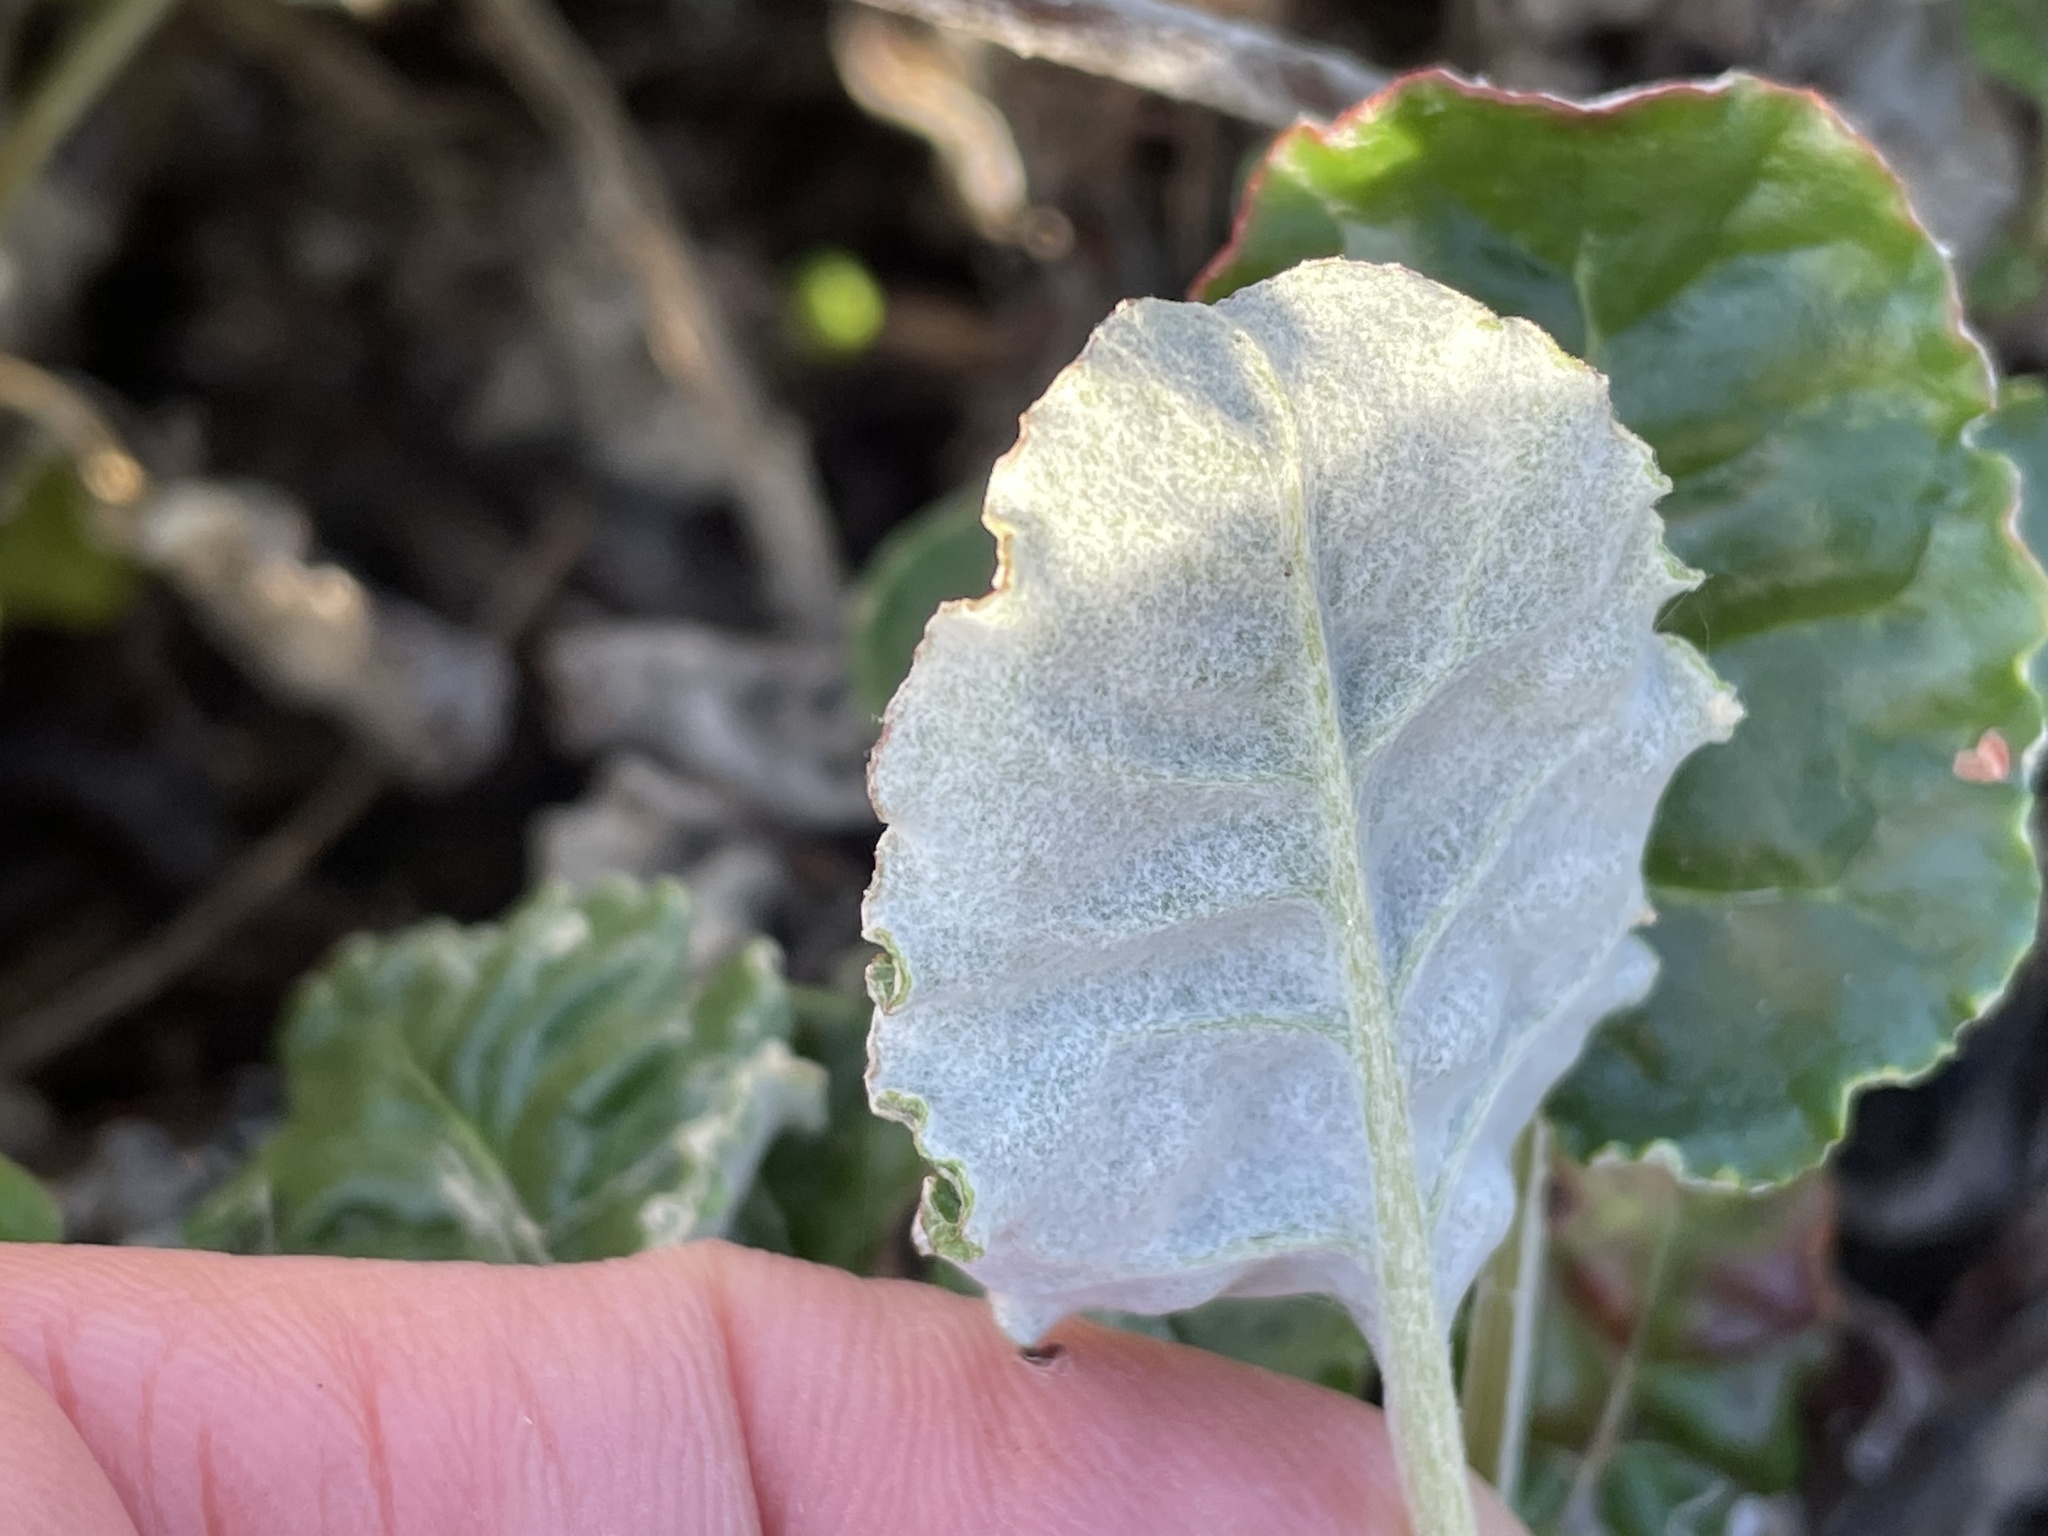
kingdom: Plantae
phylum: Tracheophyta
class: Magnoliopsida
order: Caryophyllales
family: Polygonaceae
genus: Eriogonum
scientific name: Eriogonum latifolium
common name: Seaside wild buckwheat
